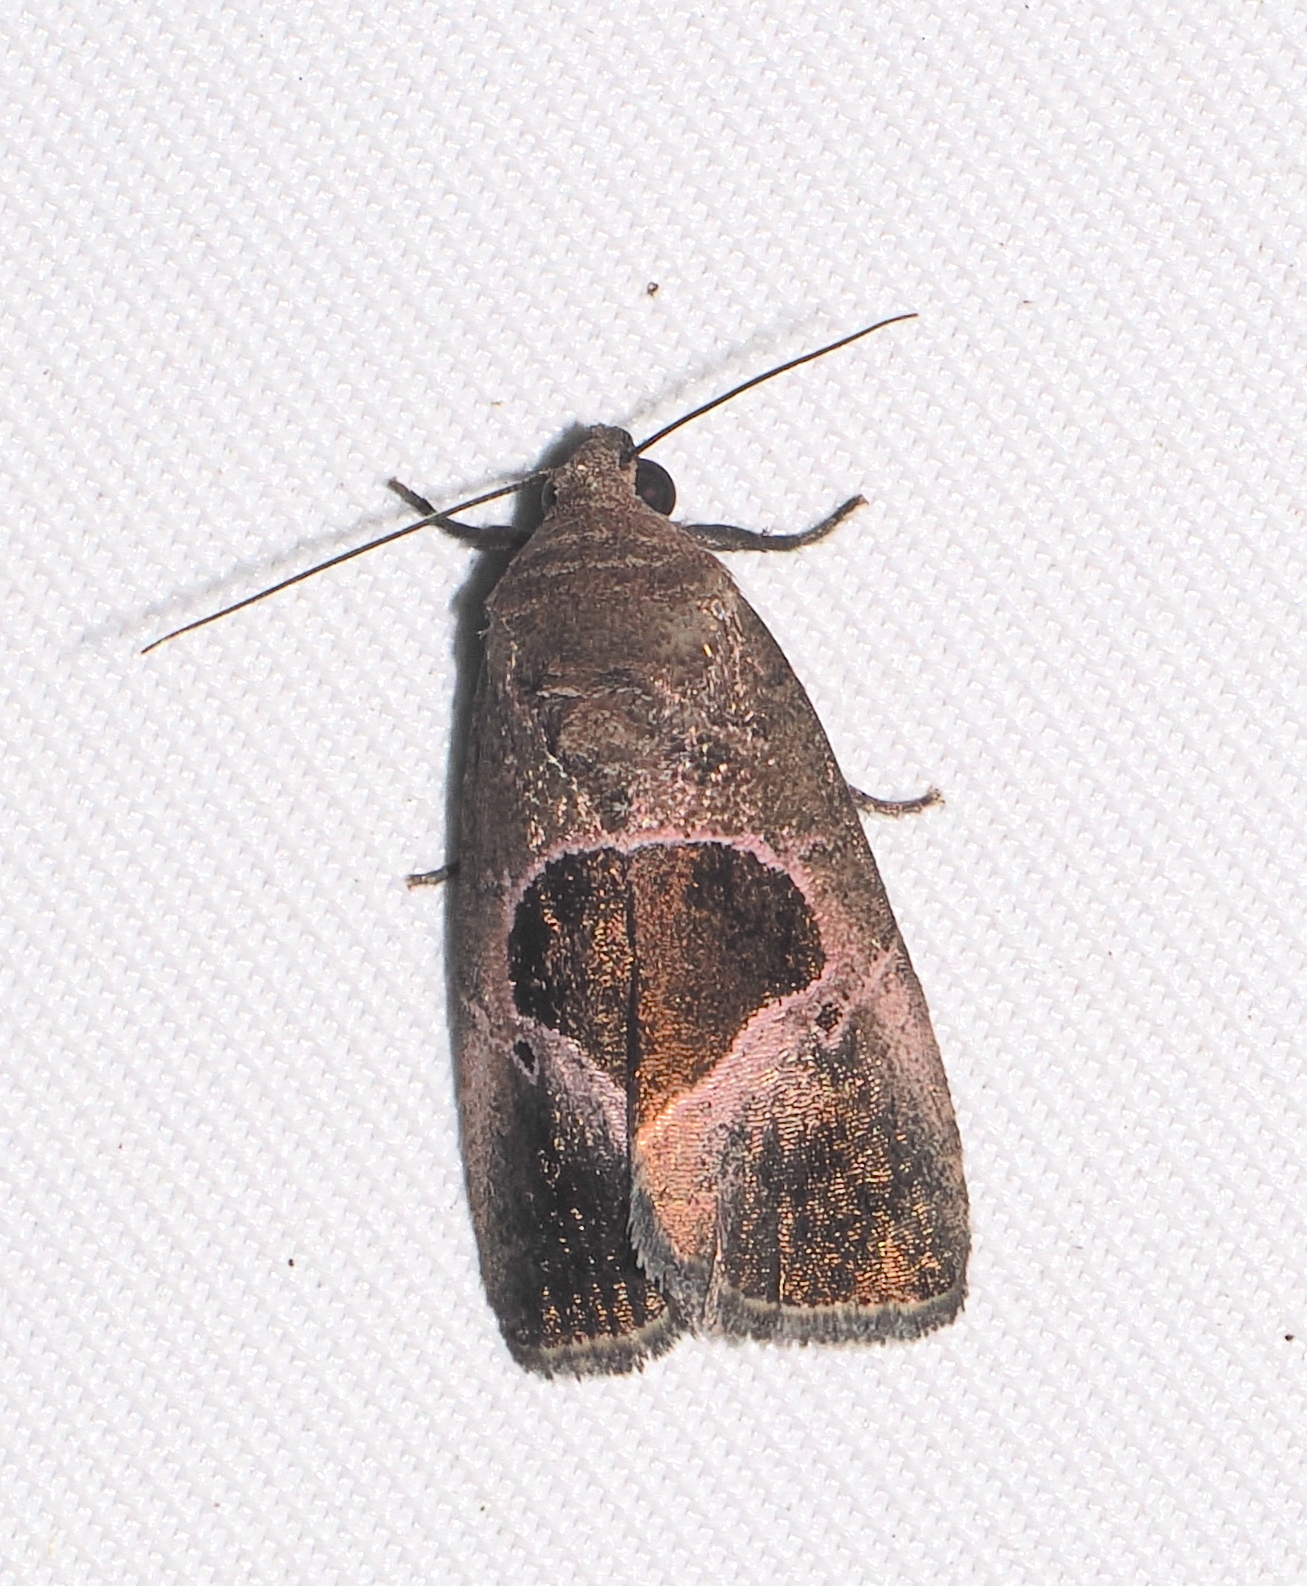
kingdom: Animalia
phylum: Arthropoda
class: Insecta
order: Lepidoptera
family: Noctuidae
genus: Elaphria
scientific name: Elaphria deltoides
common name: Cutworm moth
